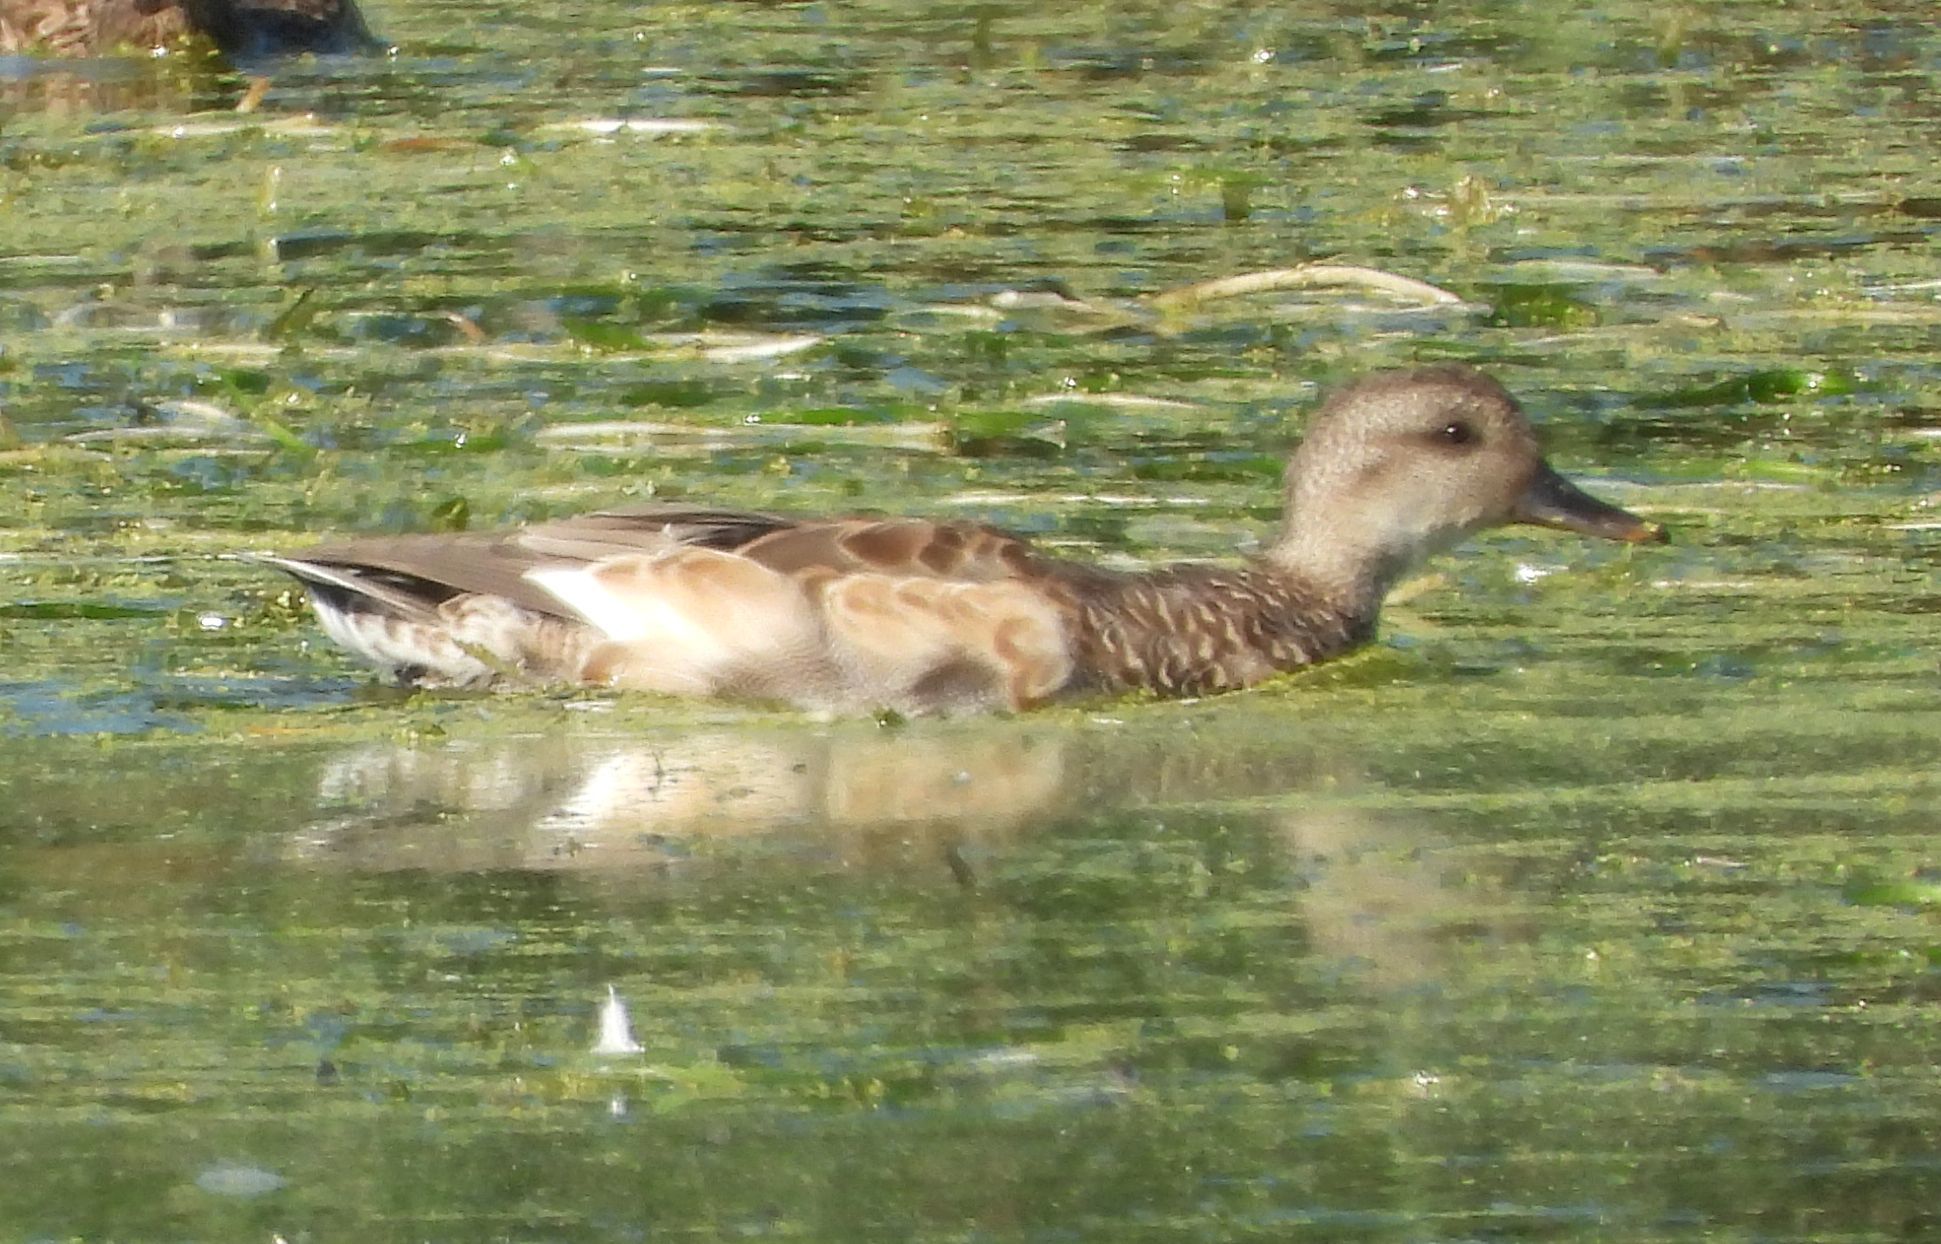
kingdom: Animalia
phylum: Chordata
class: Aves
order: Anseriformes
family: Anatidae
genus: Mareca
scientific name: Mareca strepera
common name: Gadwall
